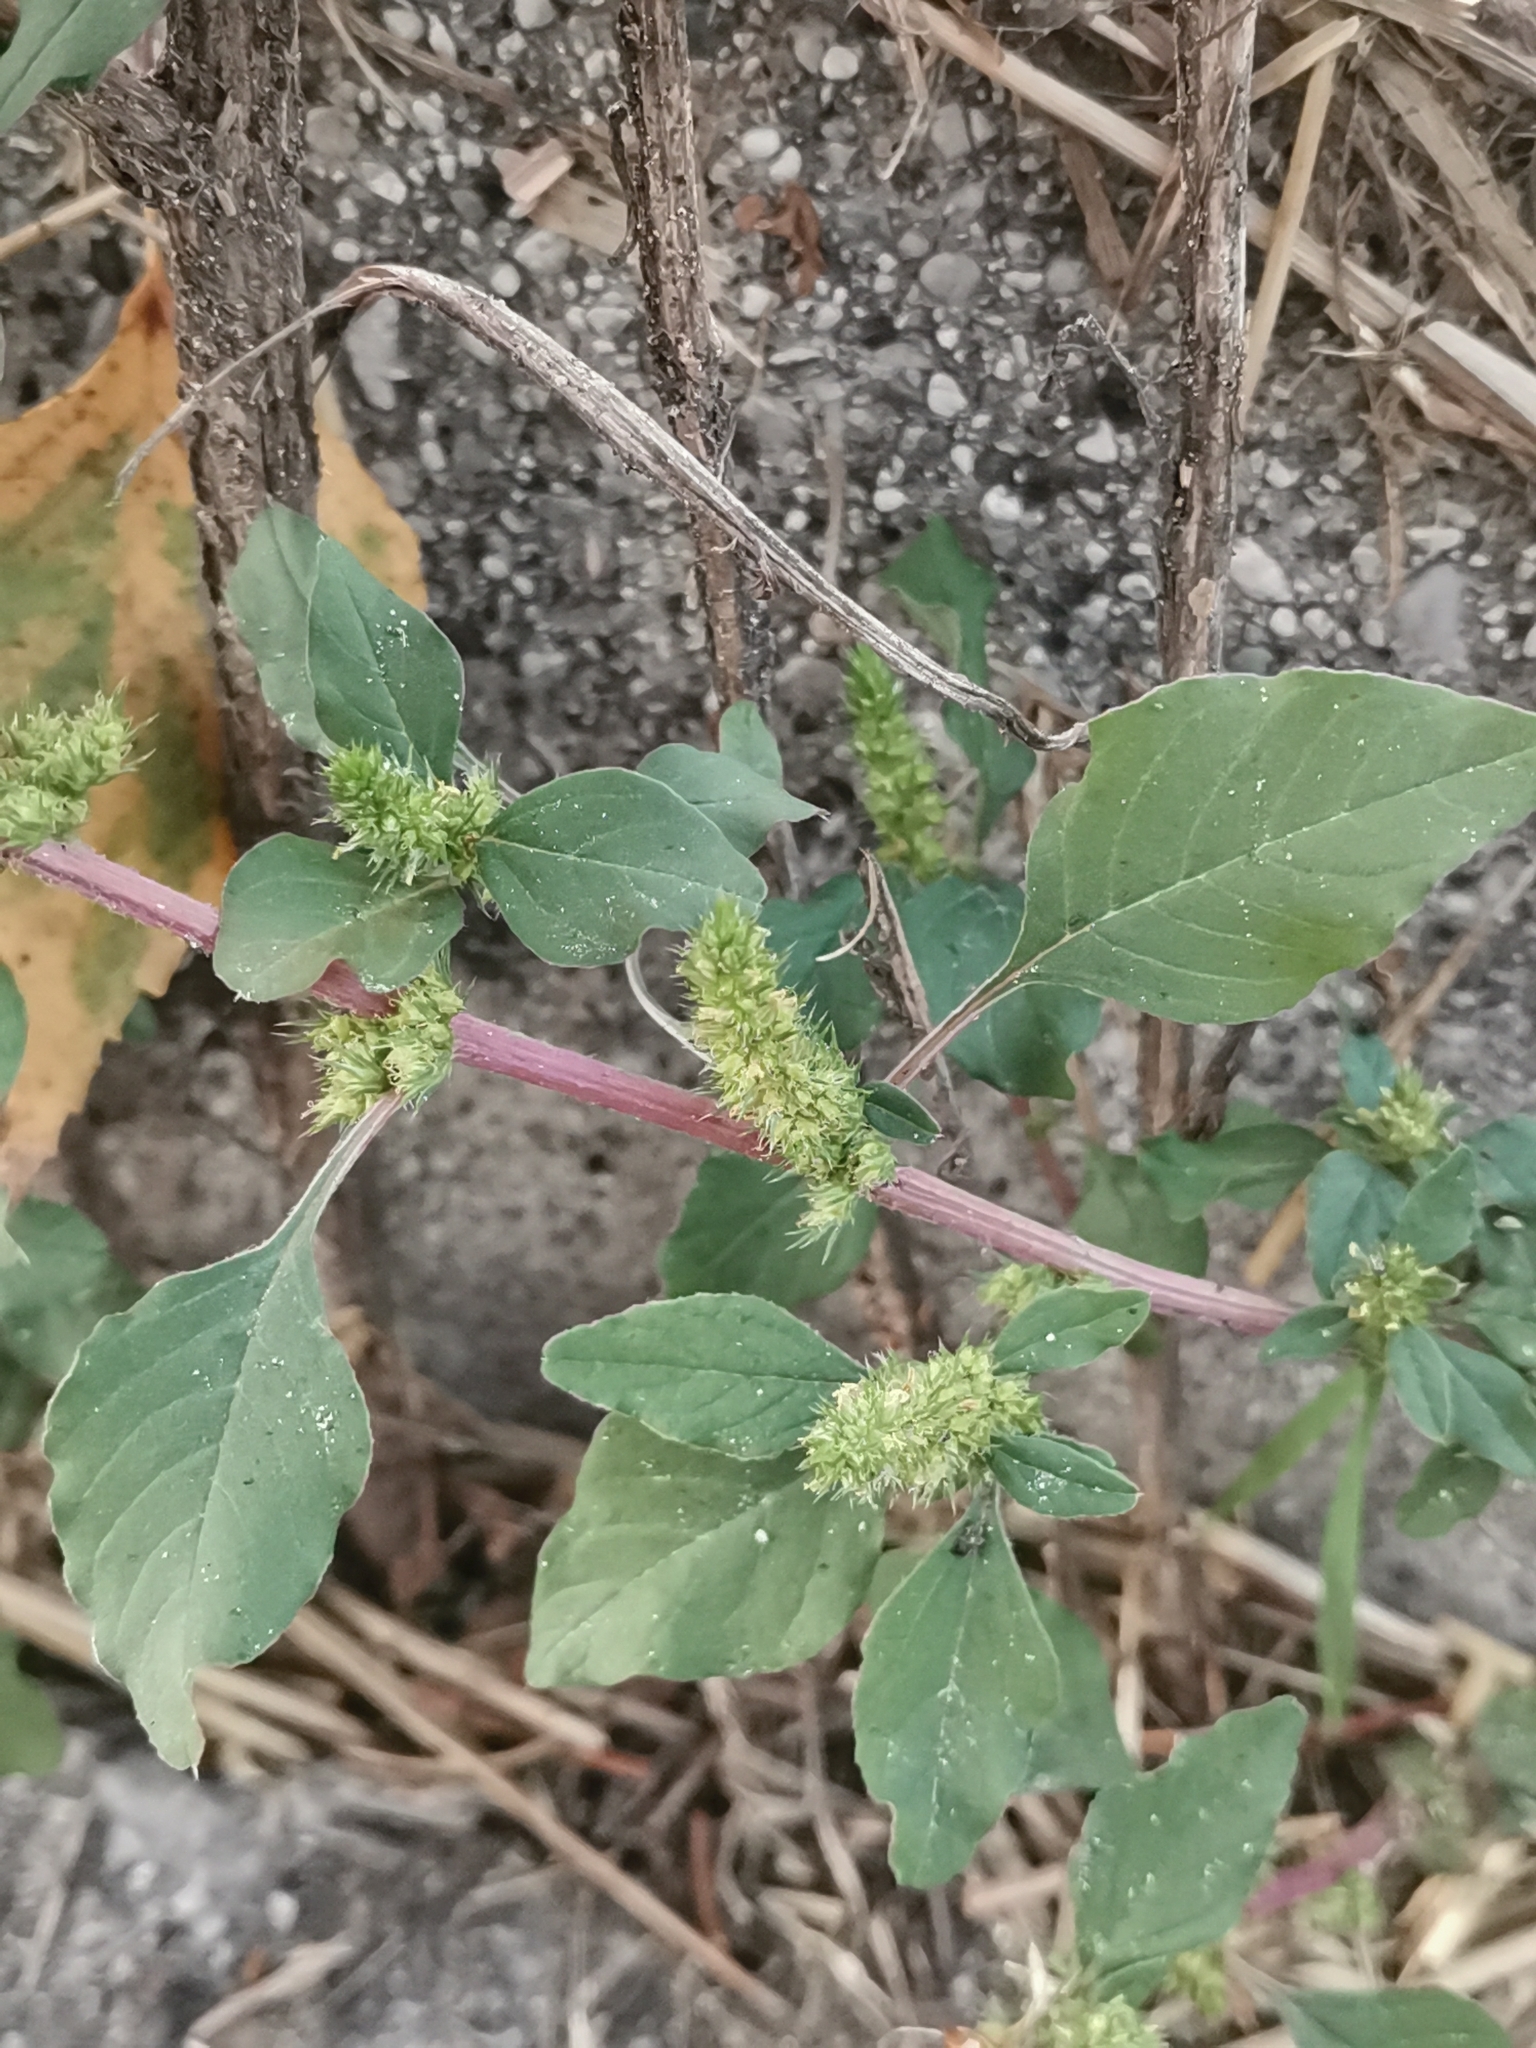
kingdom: Plantae
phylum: Tracheophyta
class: Magnoliopsida
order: Caryophyllales
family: Amaranthaceae
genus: Amaranthus
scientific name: Amaranthus retroflexus
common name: Redroot amaranth
